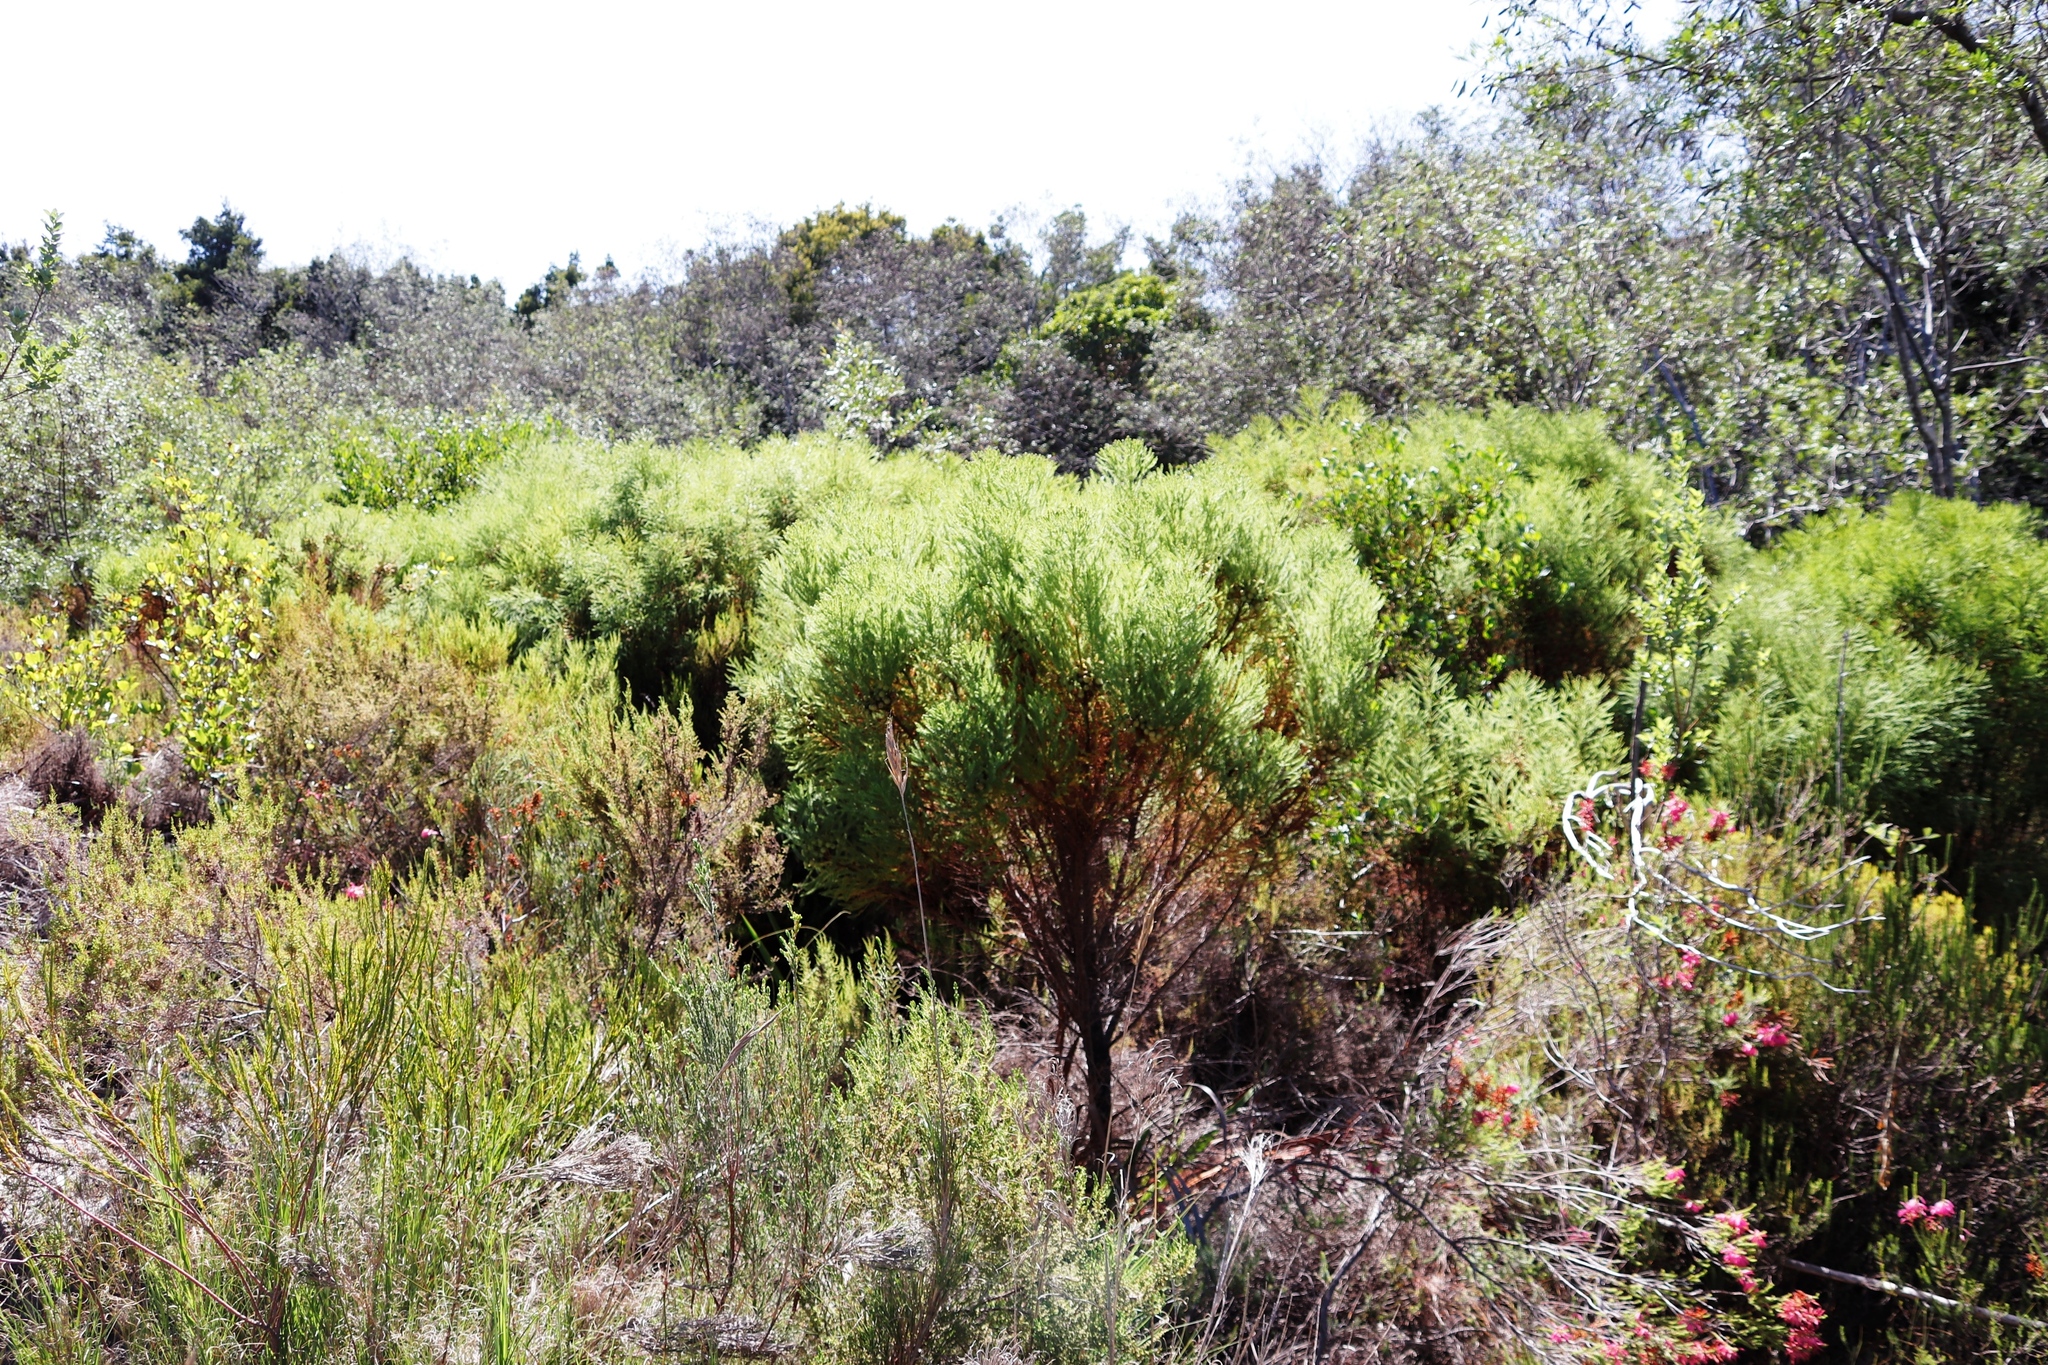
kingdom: Plantae
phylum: Tracheophyta
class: Magnoliopsida
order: Bruniales
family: Bruniaceae
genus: Berzelia
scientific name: Berzelia lanuginosa
